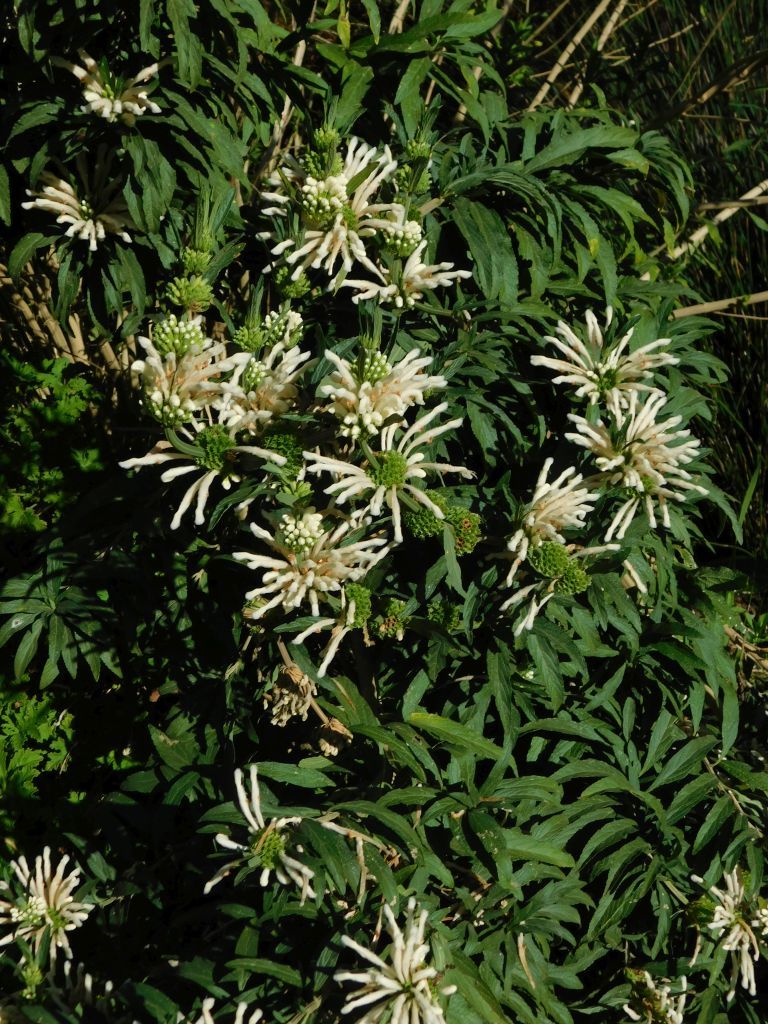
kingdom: Plantae
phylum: Tracheophyta
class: Magnoliopsida
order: Lamiales
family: Lamiaceae
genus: Leonotis
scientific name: Leonotis leonurus
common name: Lion's ear
